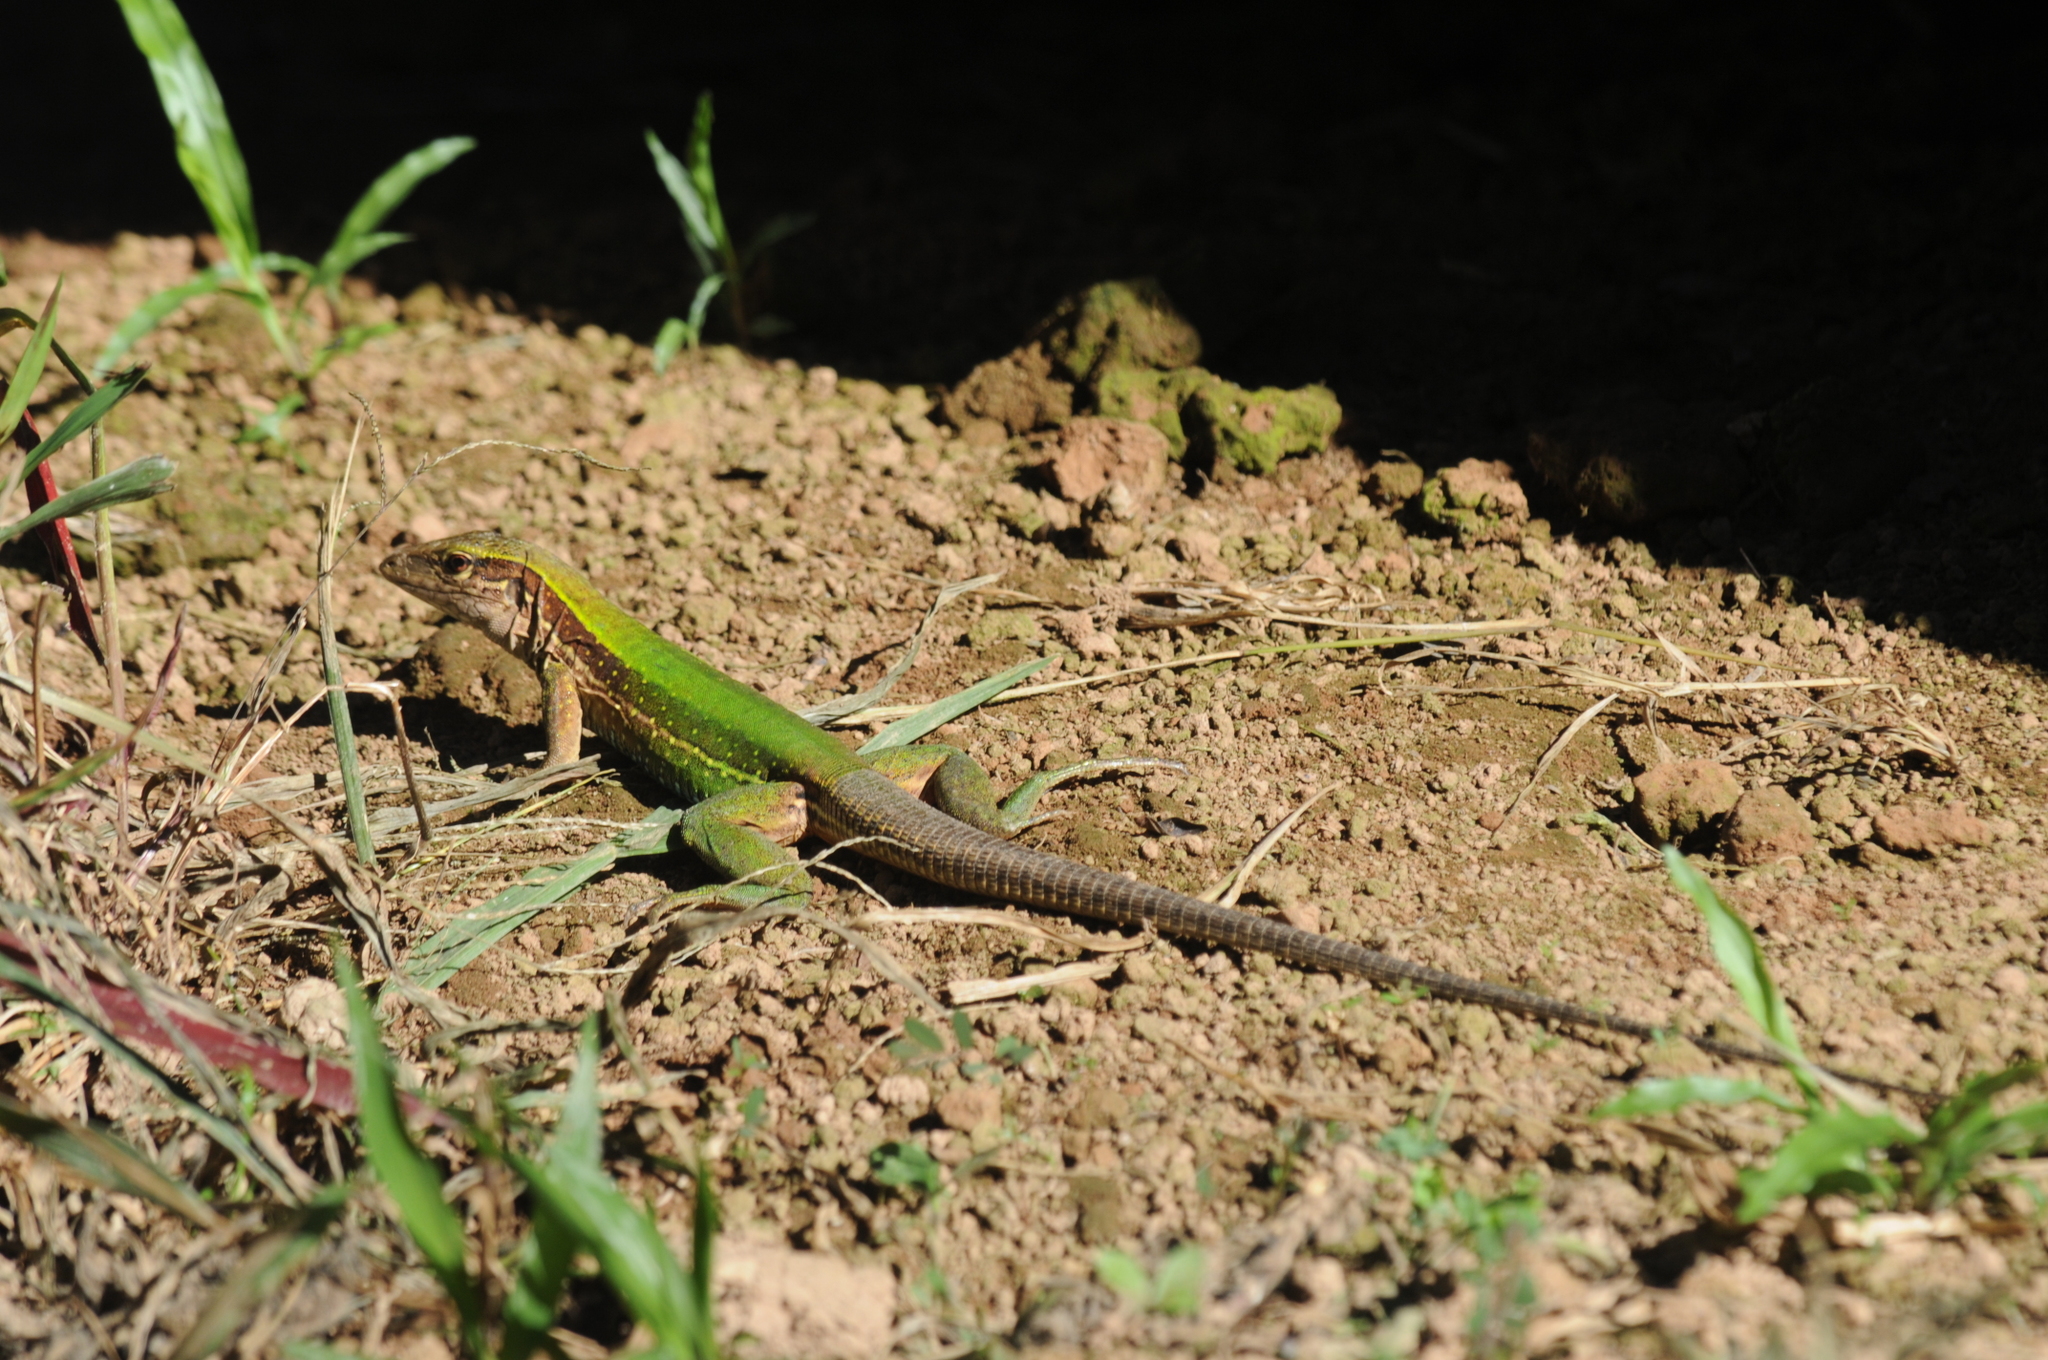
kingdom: Animalia
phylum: Chordata
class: Squamata
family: Teiidae
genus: Ameiva
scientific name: Ameiva ameiva
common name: Giant ameiva
